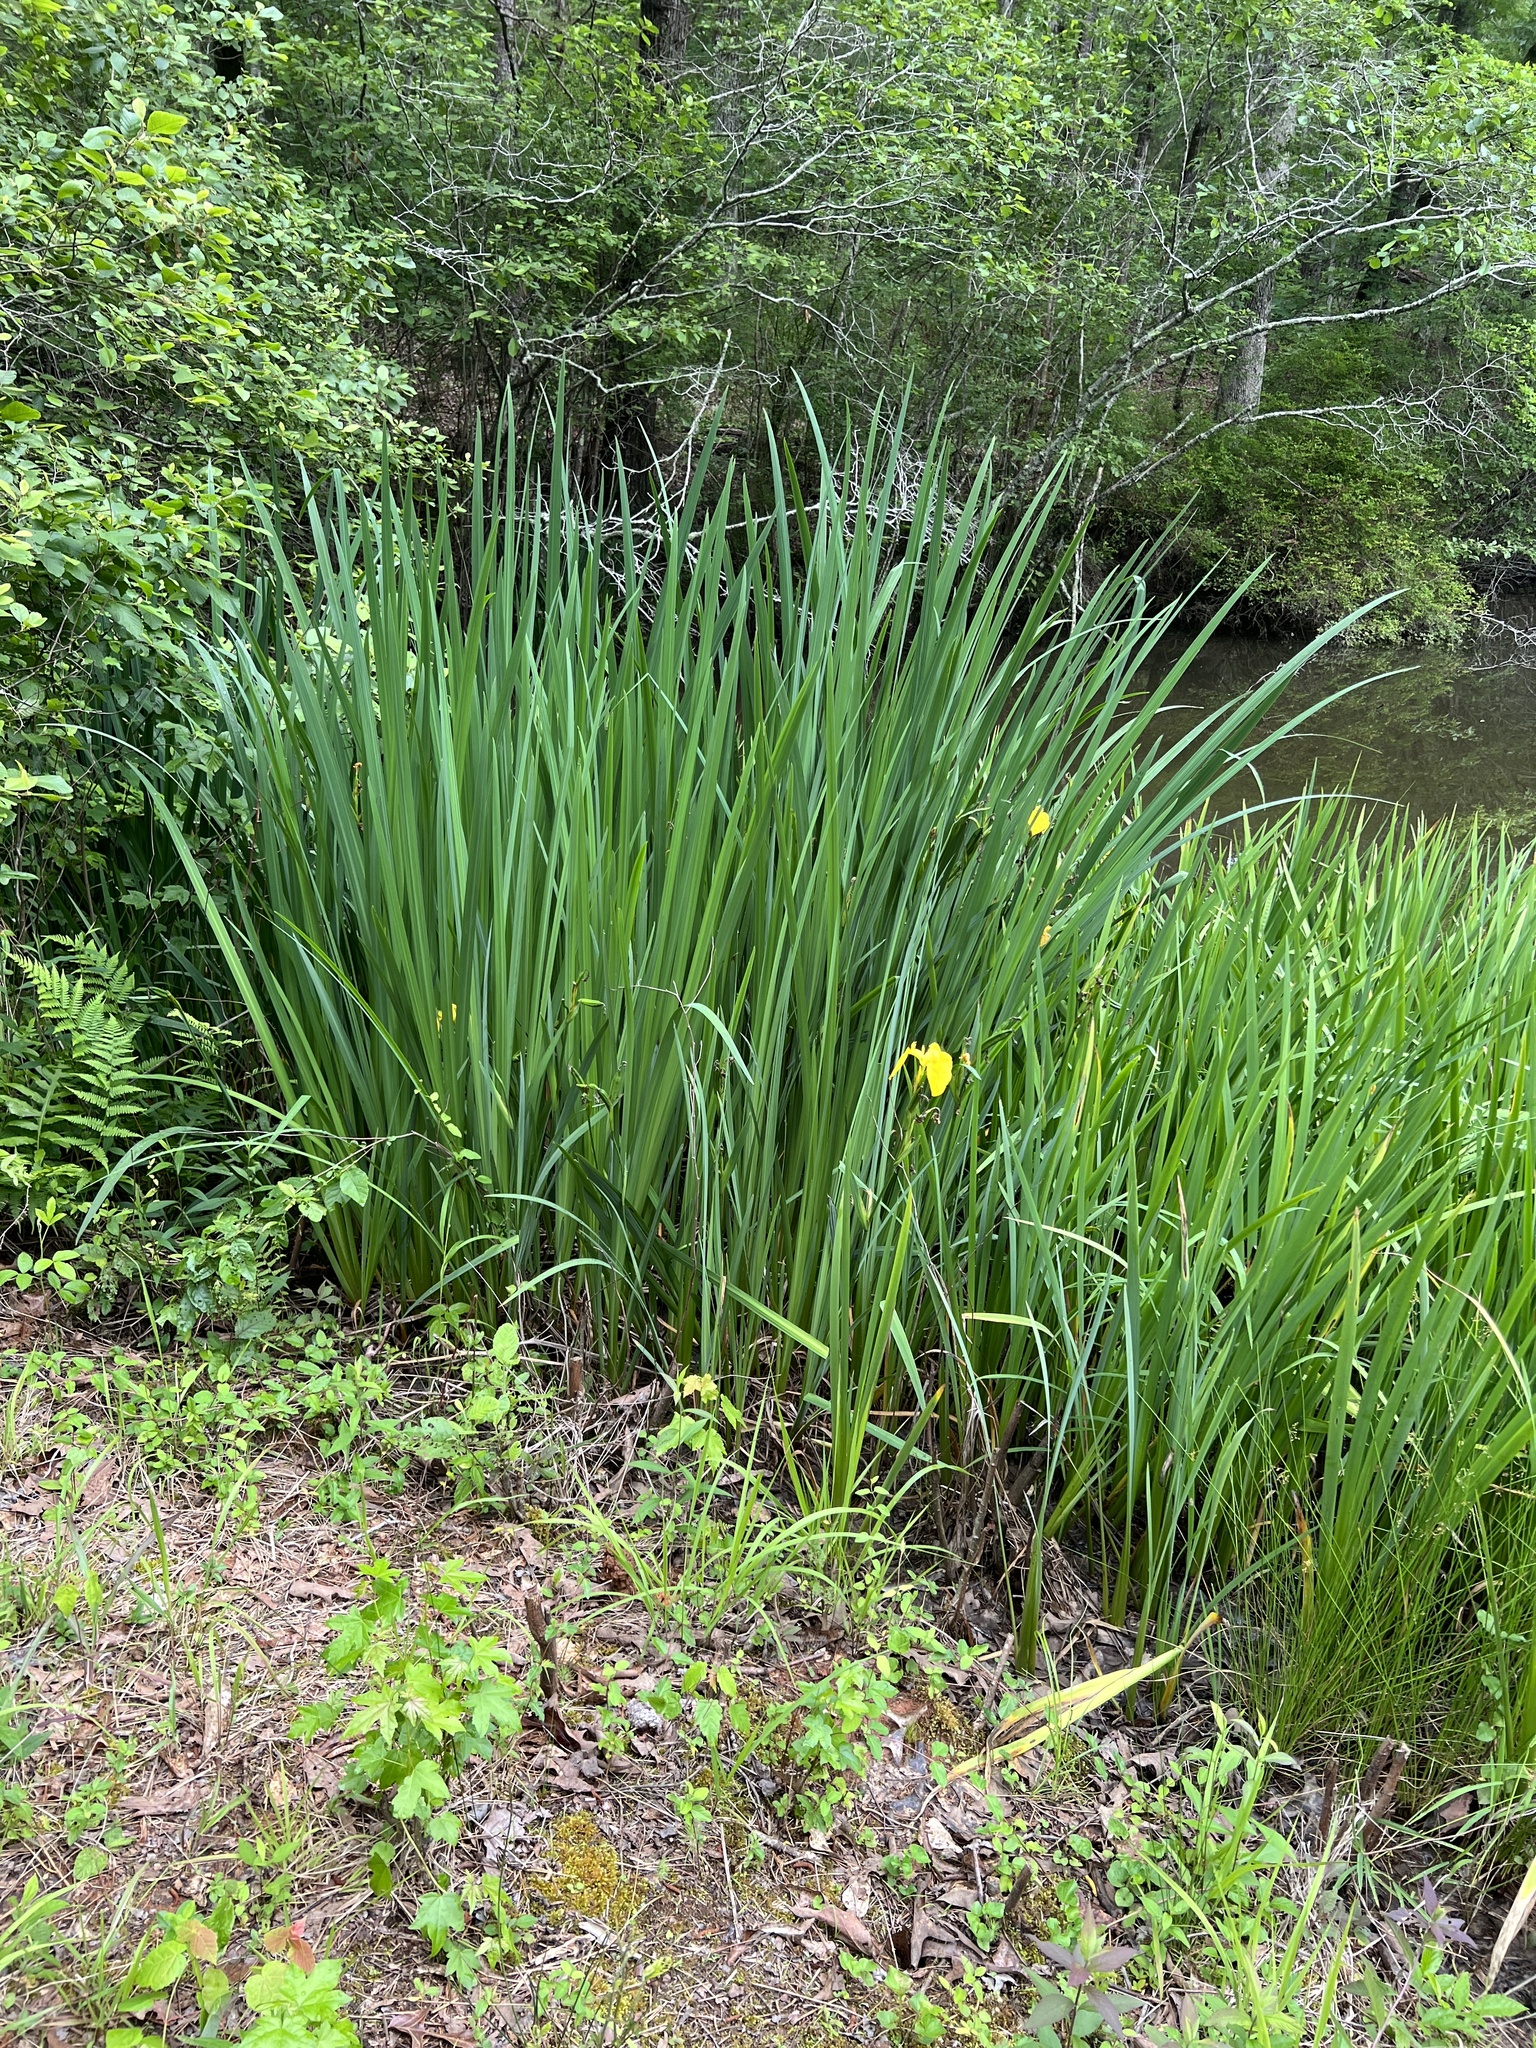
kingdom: Plantae
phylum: Tracheophyta
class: Liliopsida
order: Asparagales
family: Iridaceae
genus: Iris
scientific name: Iris pseudacorus
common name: Yellow flag
